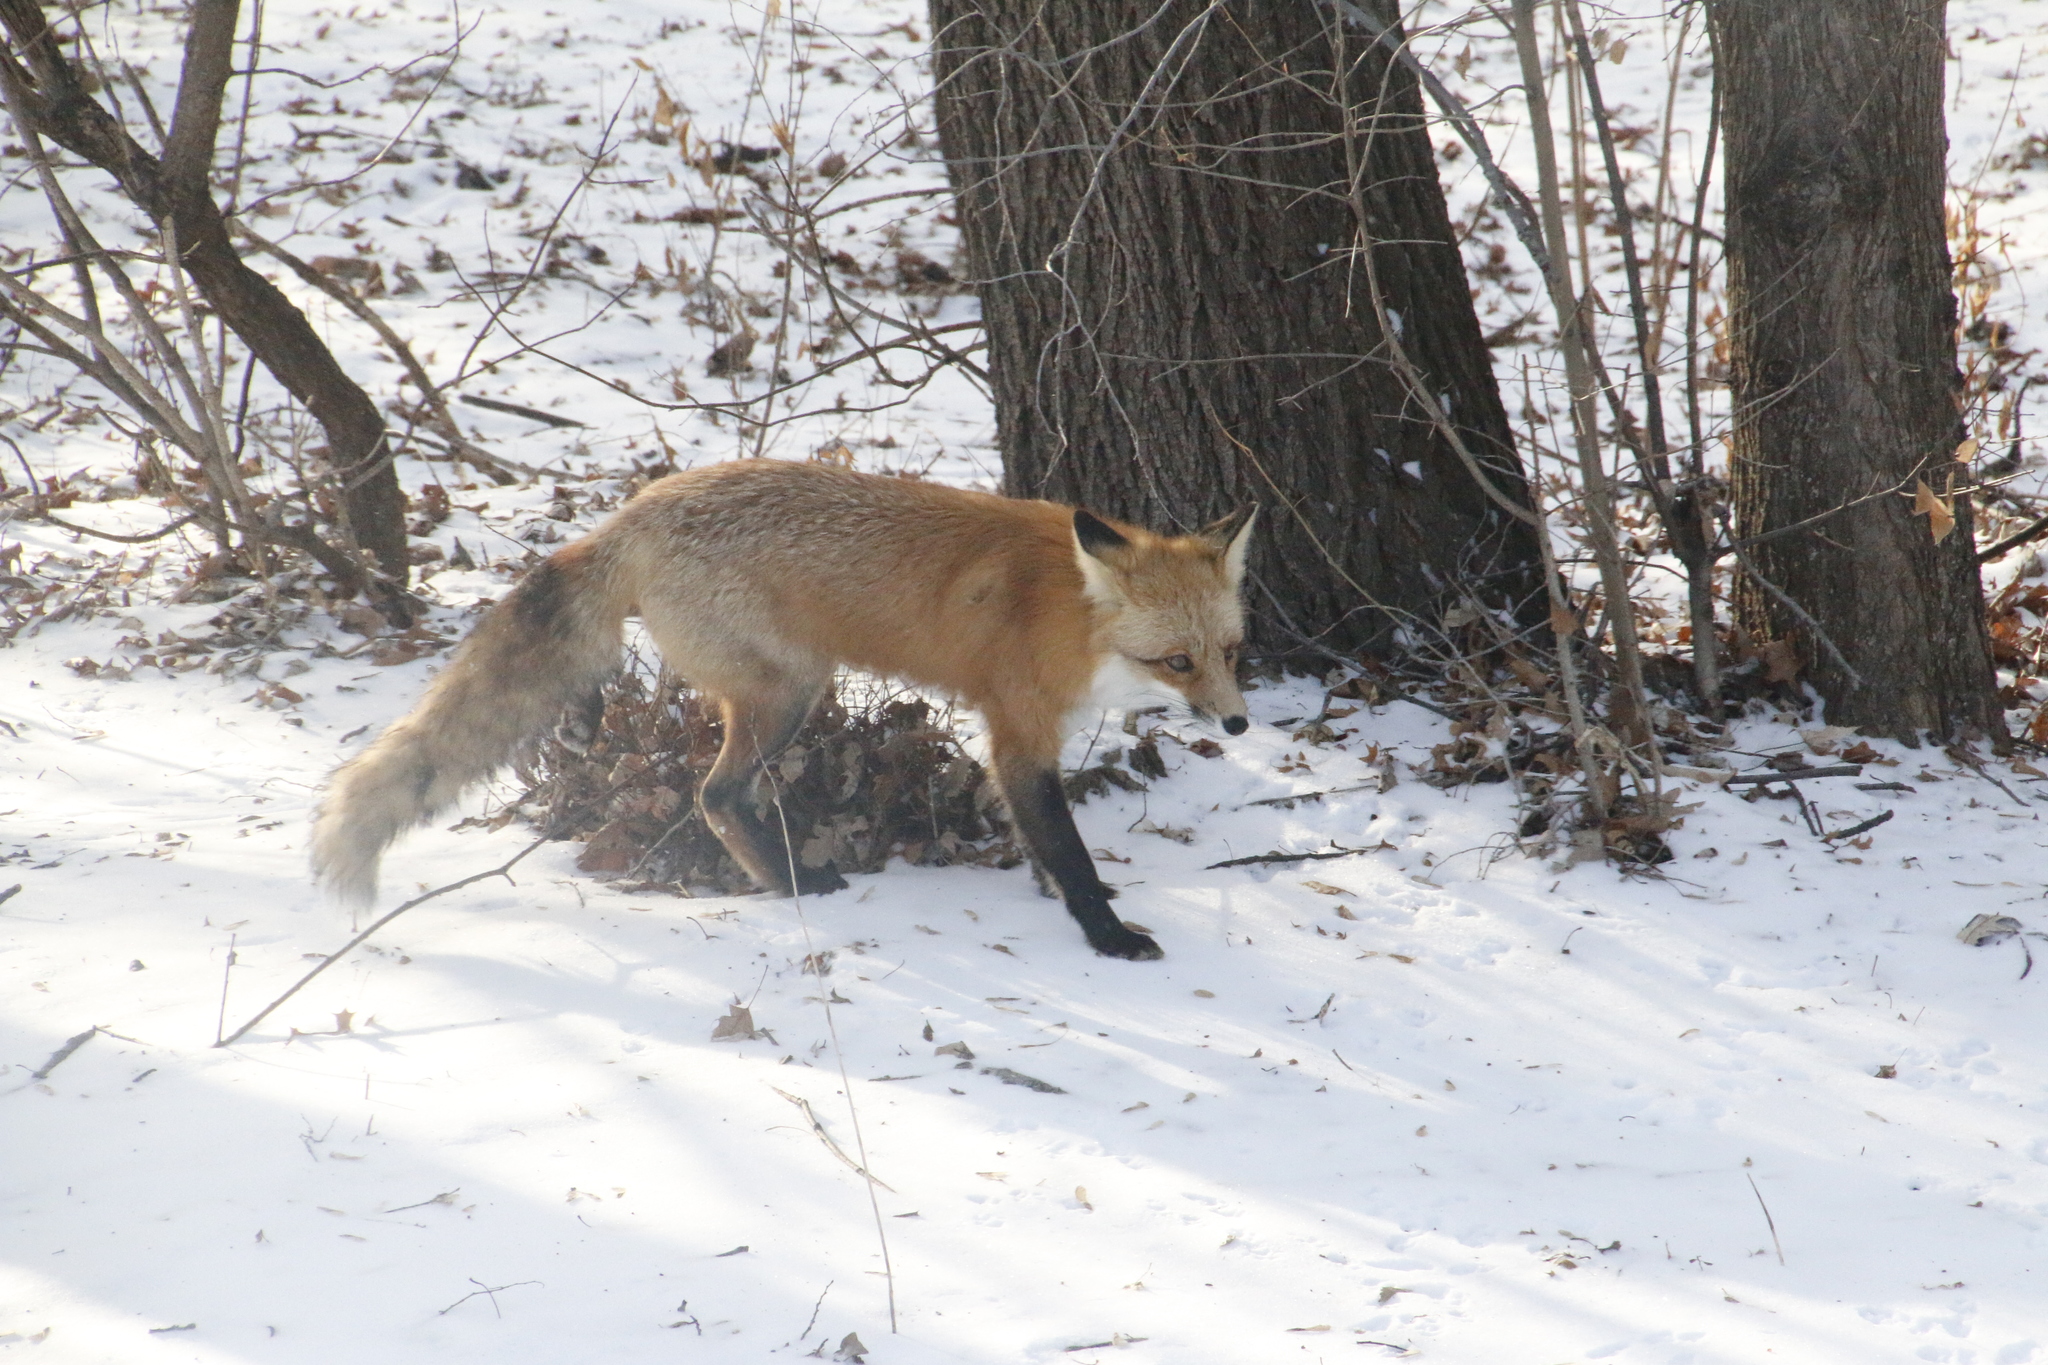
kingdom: Animalia
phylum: Chordata
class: Mammalia
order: Carnivora
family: Canidae
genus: Vulpes
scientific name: Vulpes vulpes
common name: Red fox
